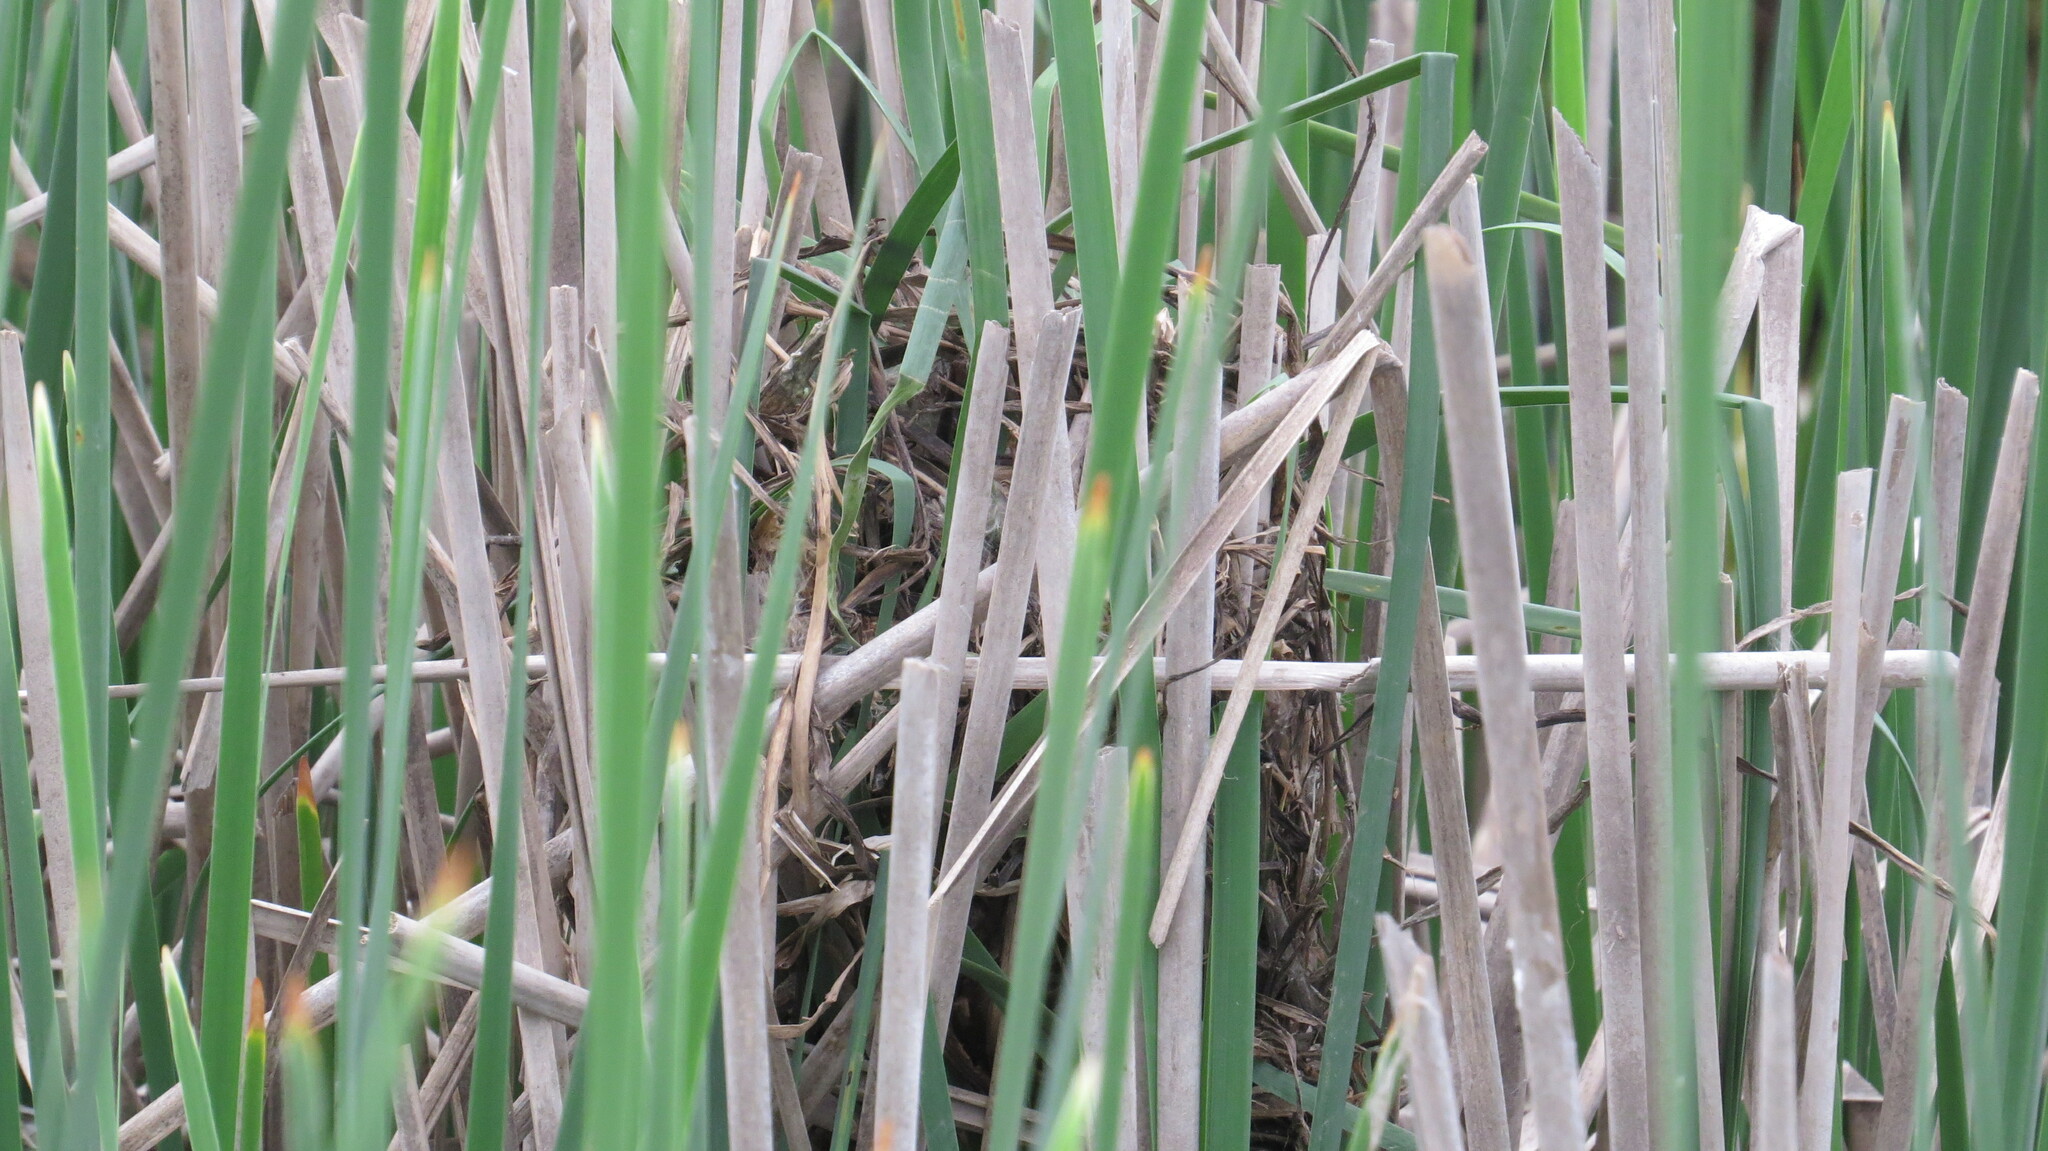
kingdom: Animalia
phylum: Chordata
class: Aves
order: Passeriformes
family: Troglodytidae
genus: Cistothorus
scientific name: Cistothorus palustris
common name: Marsh wren
